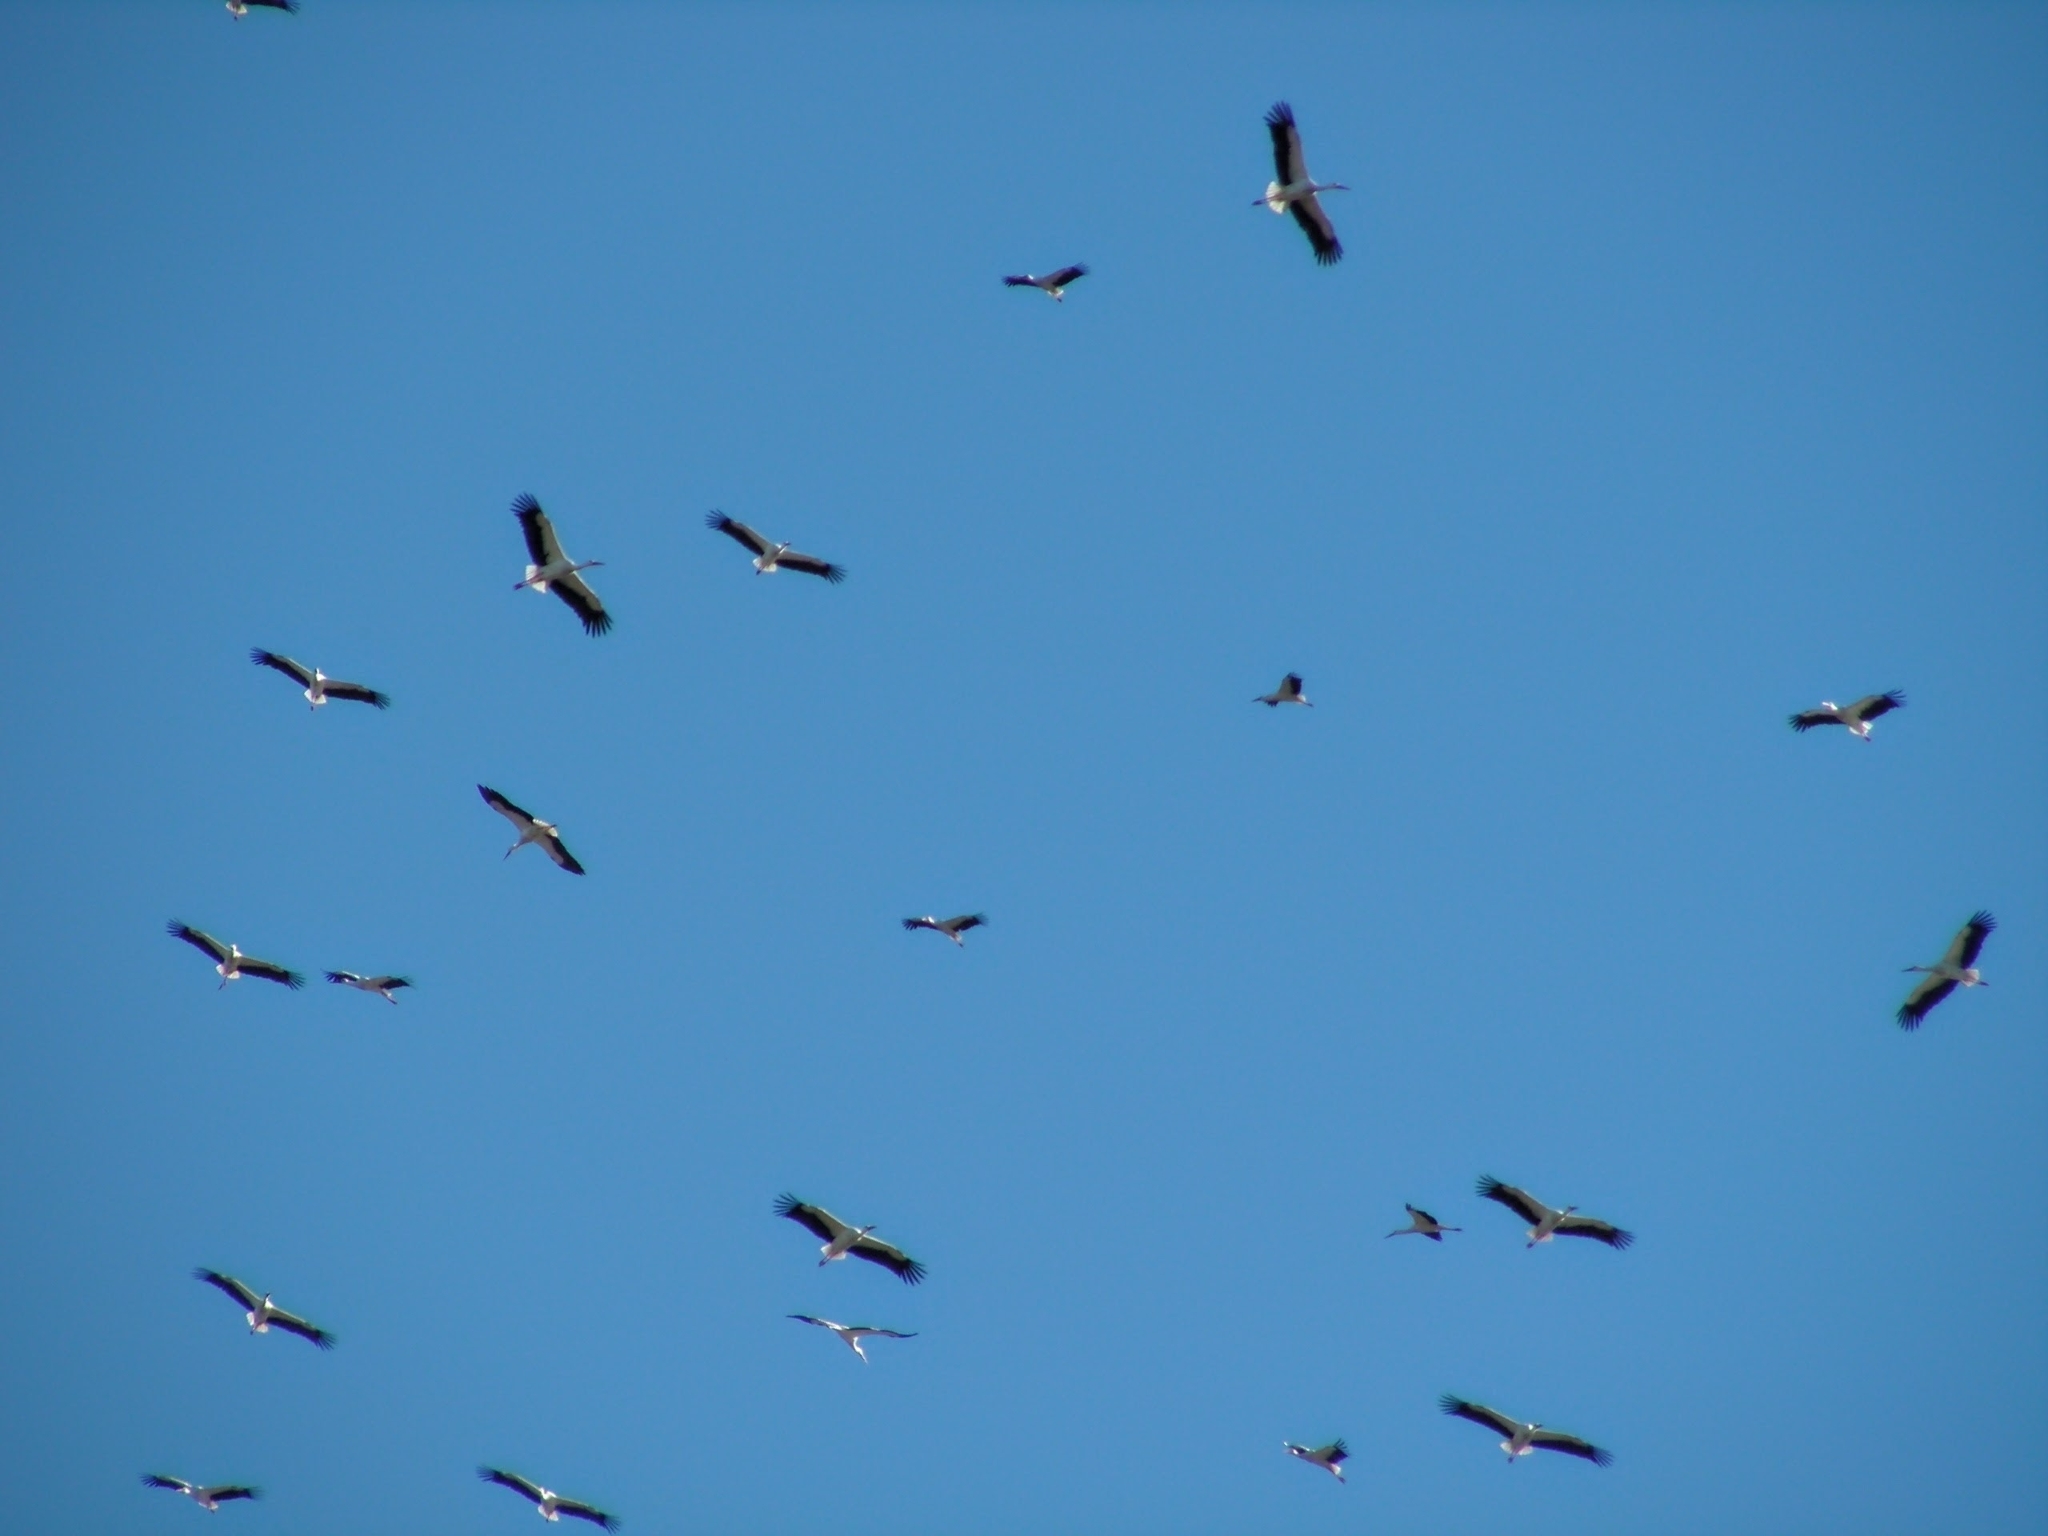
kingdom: Animalia
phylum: Chordata
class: Aves
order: Ciconiiformes
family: Ciconiidae
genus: Ciconia
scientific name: Ciconia ciconia
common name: White stork
